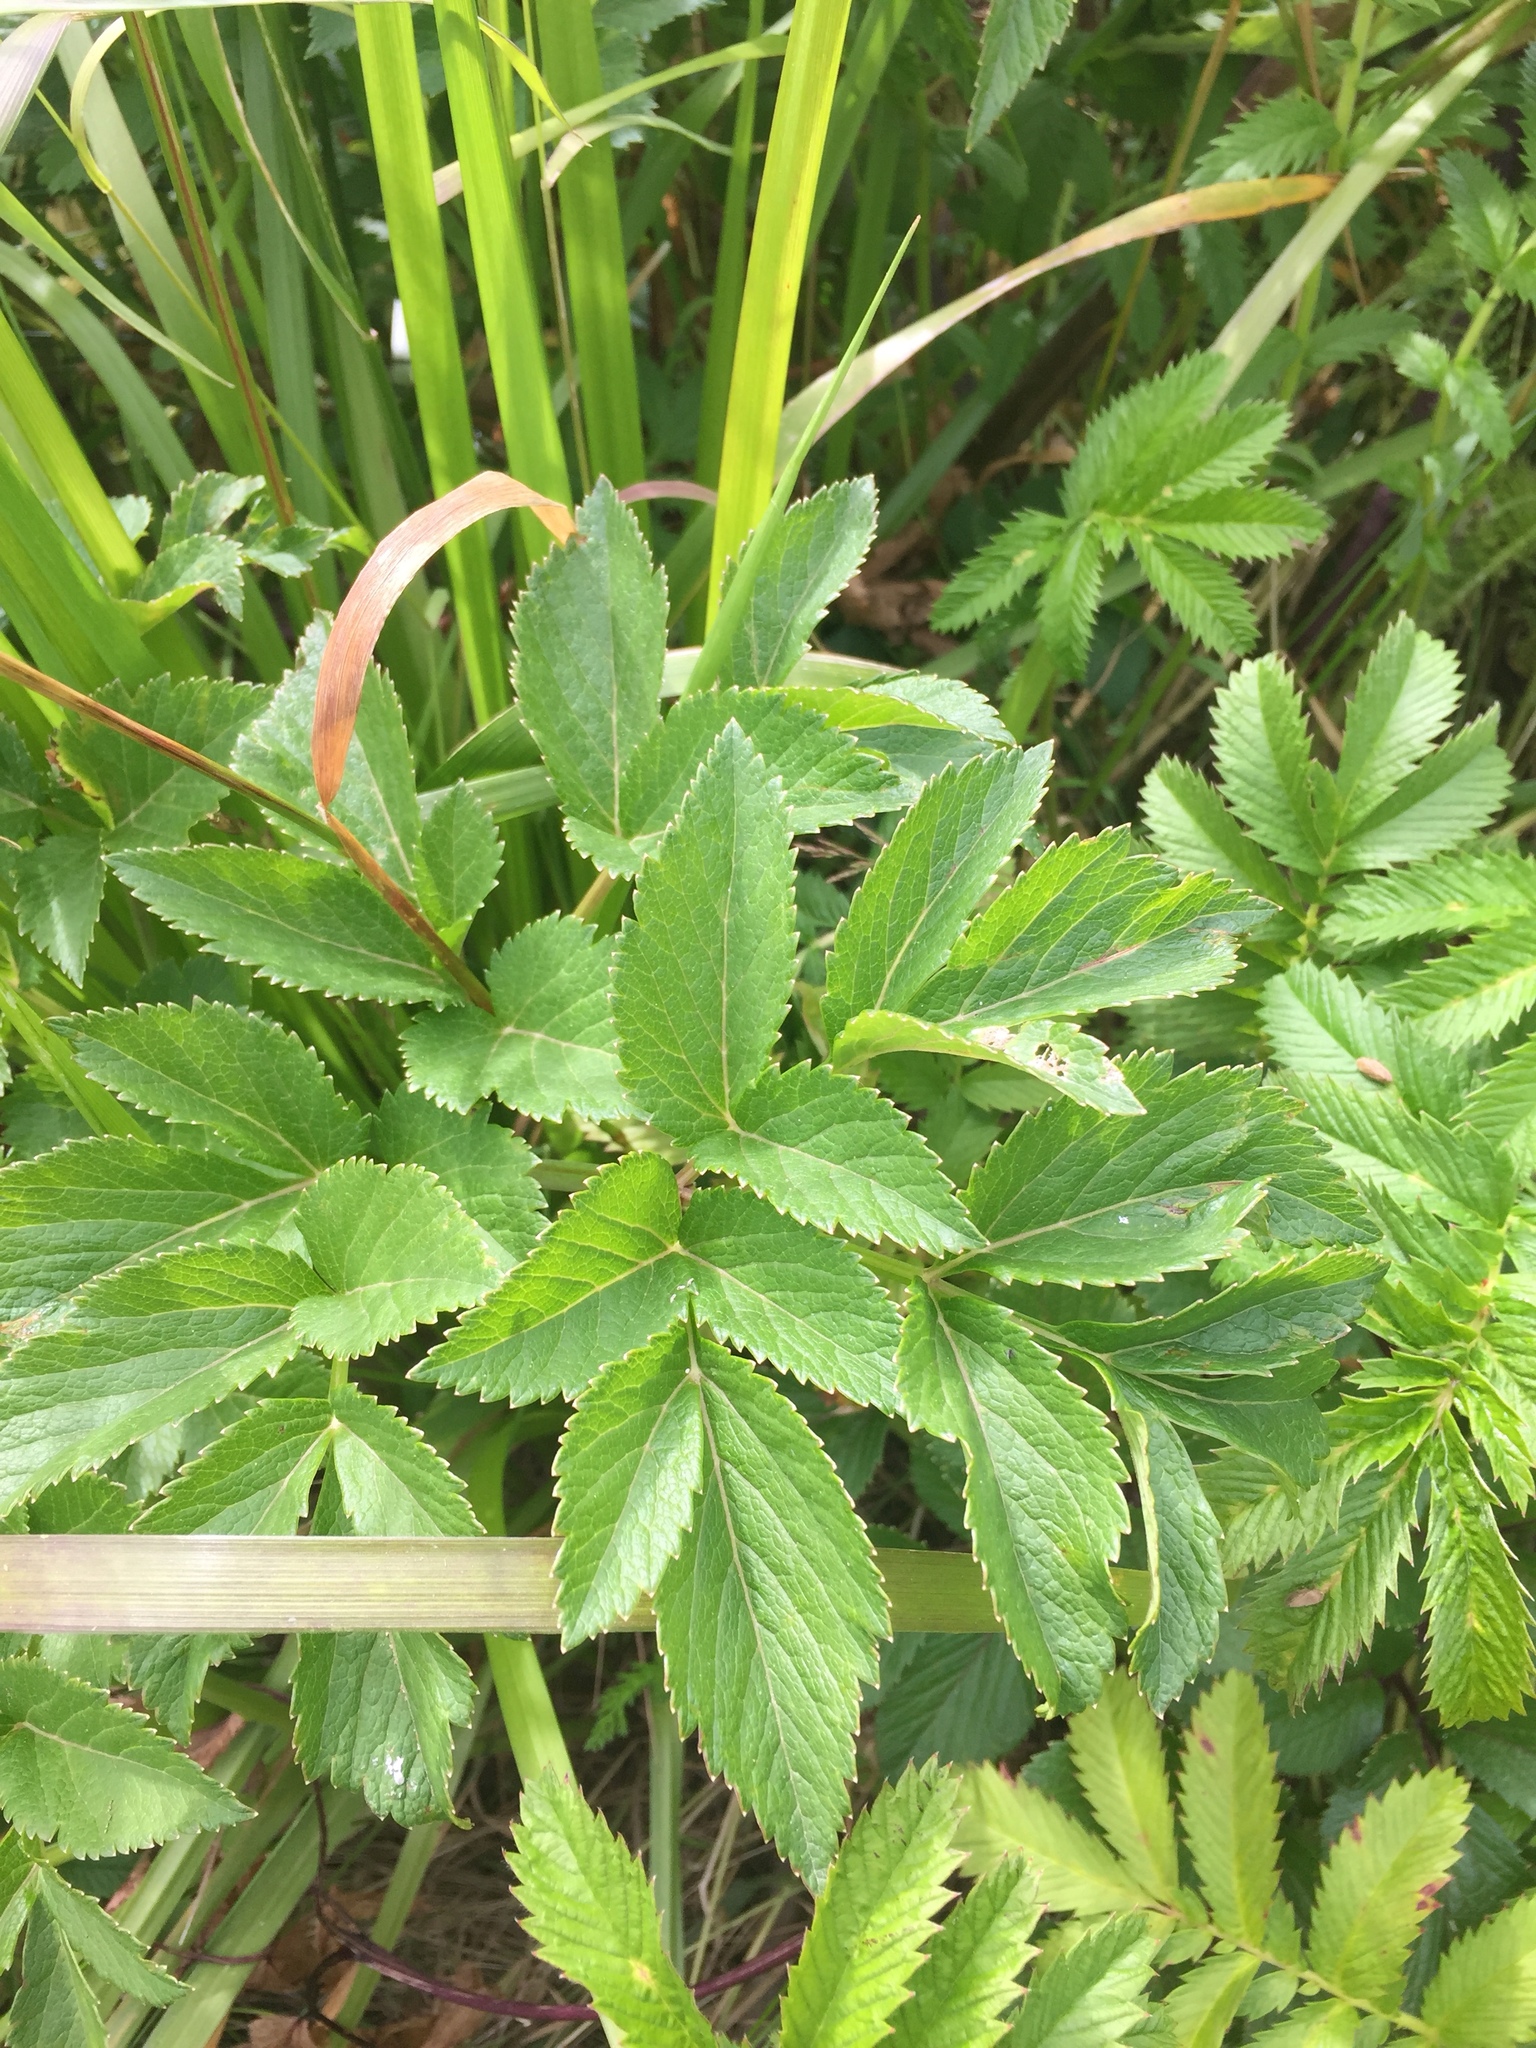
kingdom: Plantae
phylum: Tracheophyta
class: Magnoliopsida
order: Apiales
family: Apiaceae
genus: Angelica
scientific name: Angelica lucida
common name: Seabeach angelica
